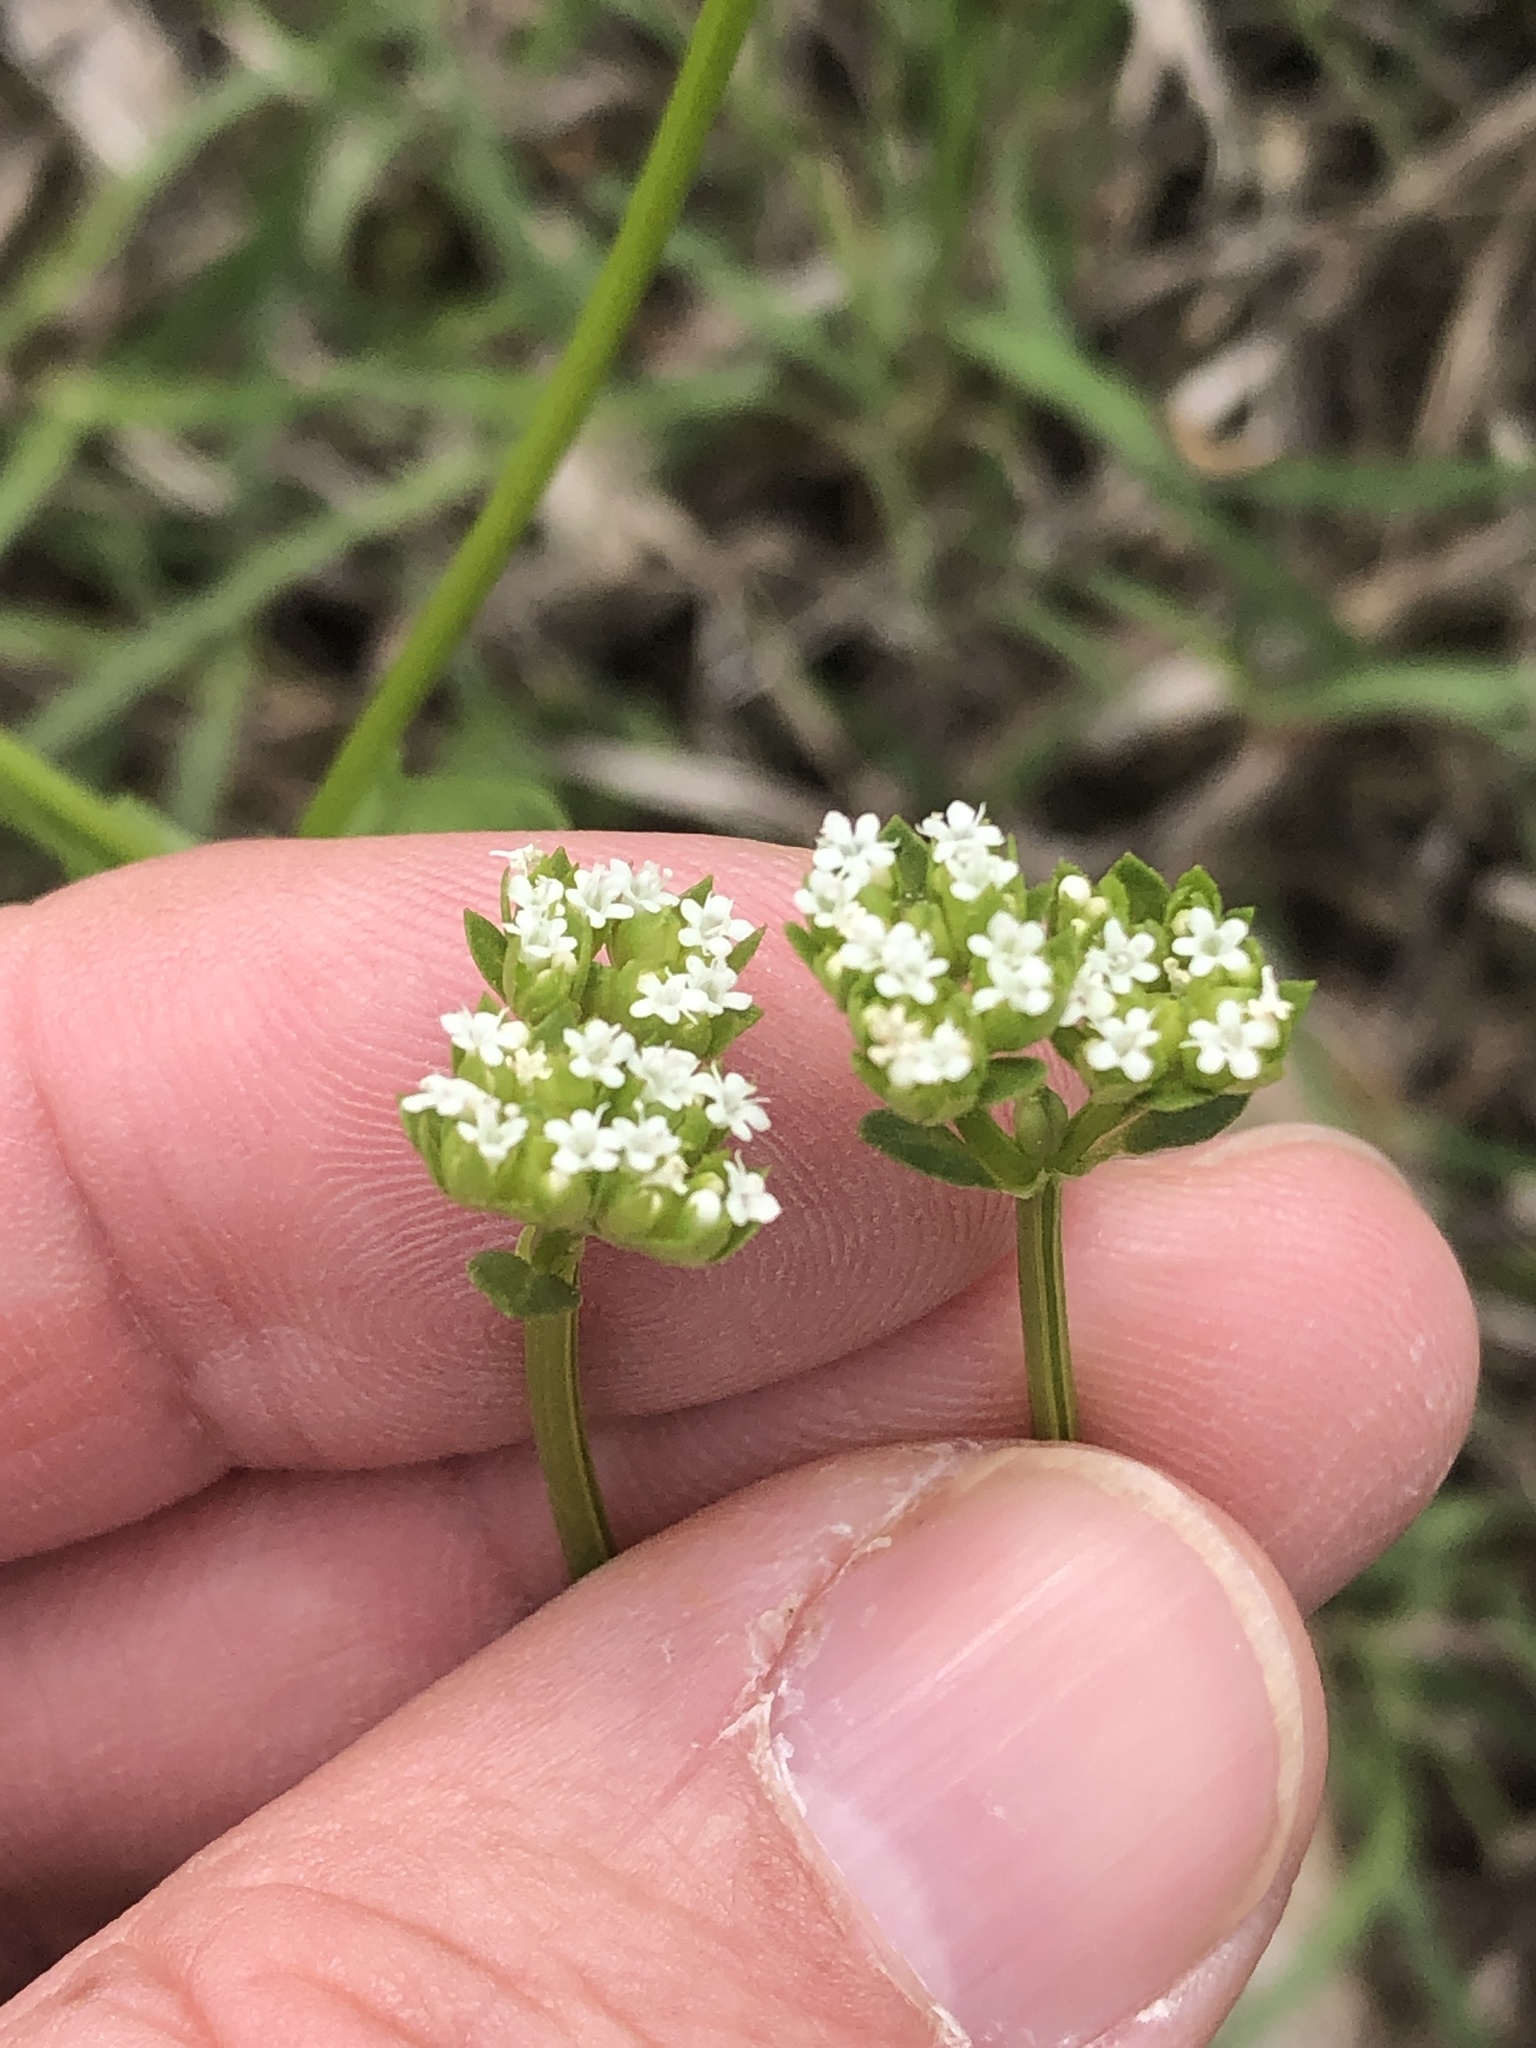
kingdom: Plantae
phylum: Tracheophyta
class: Magnoliopsida
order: Dipsacales
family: Caprifoliaceae
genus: Valerianella
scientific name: Valerianella radiata
